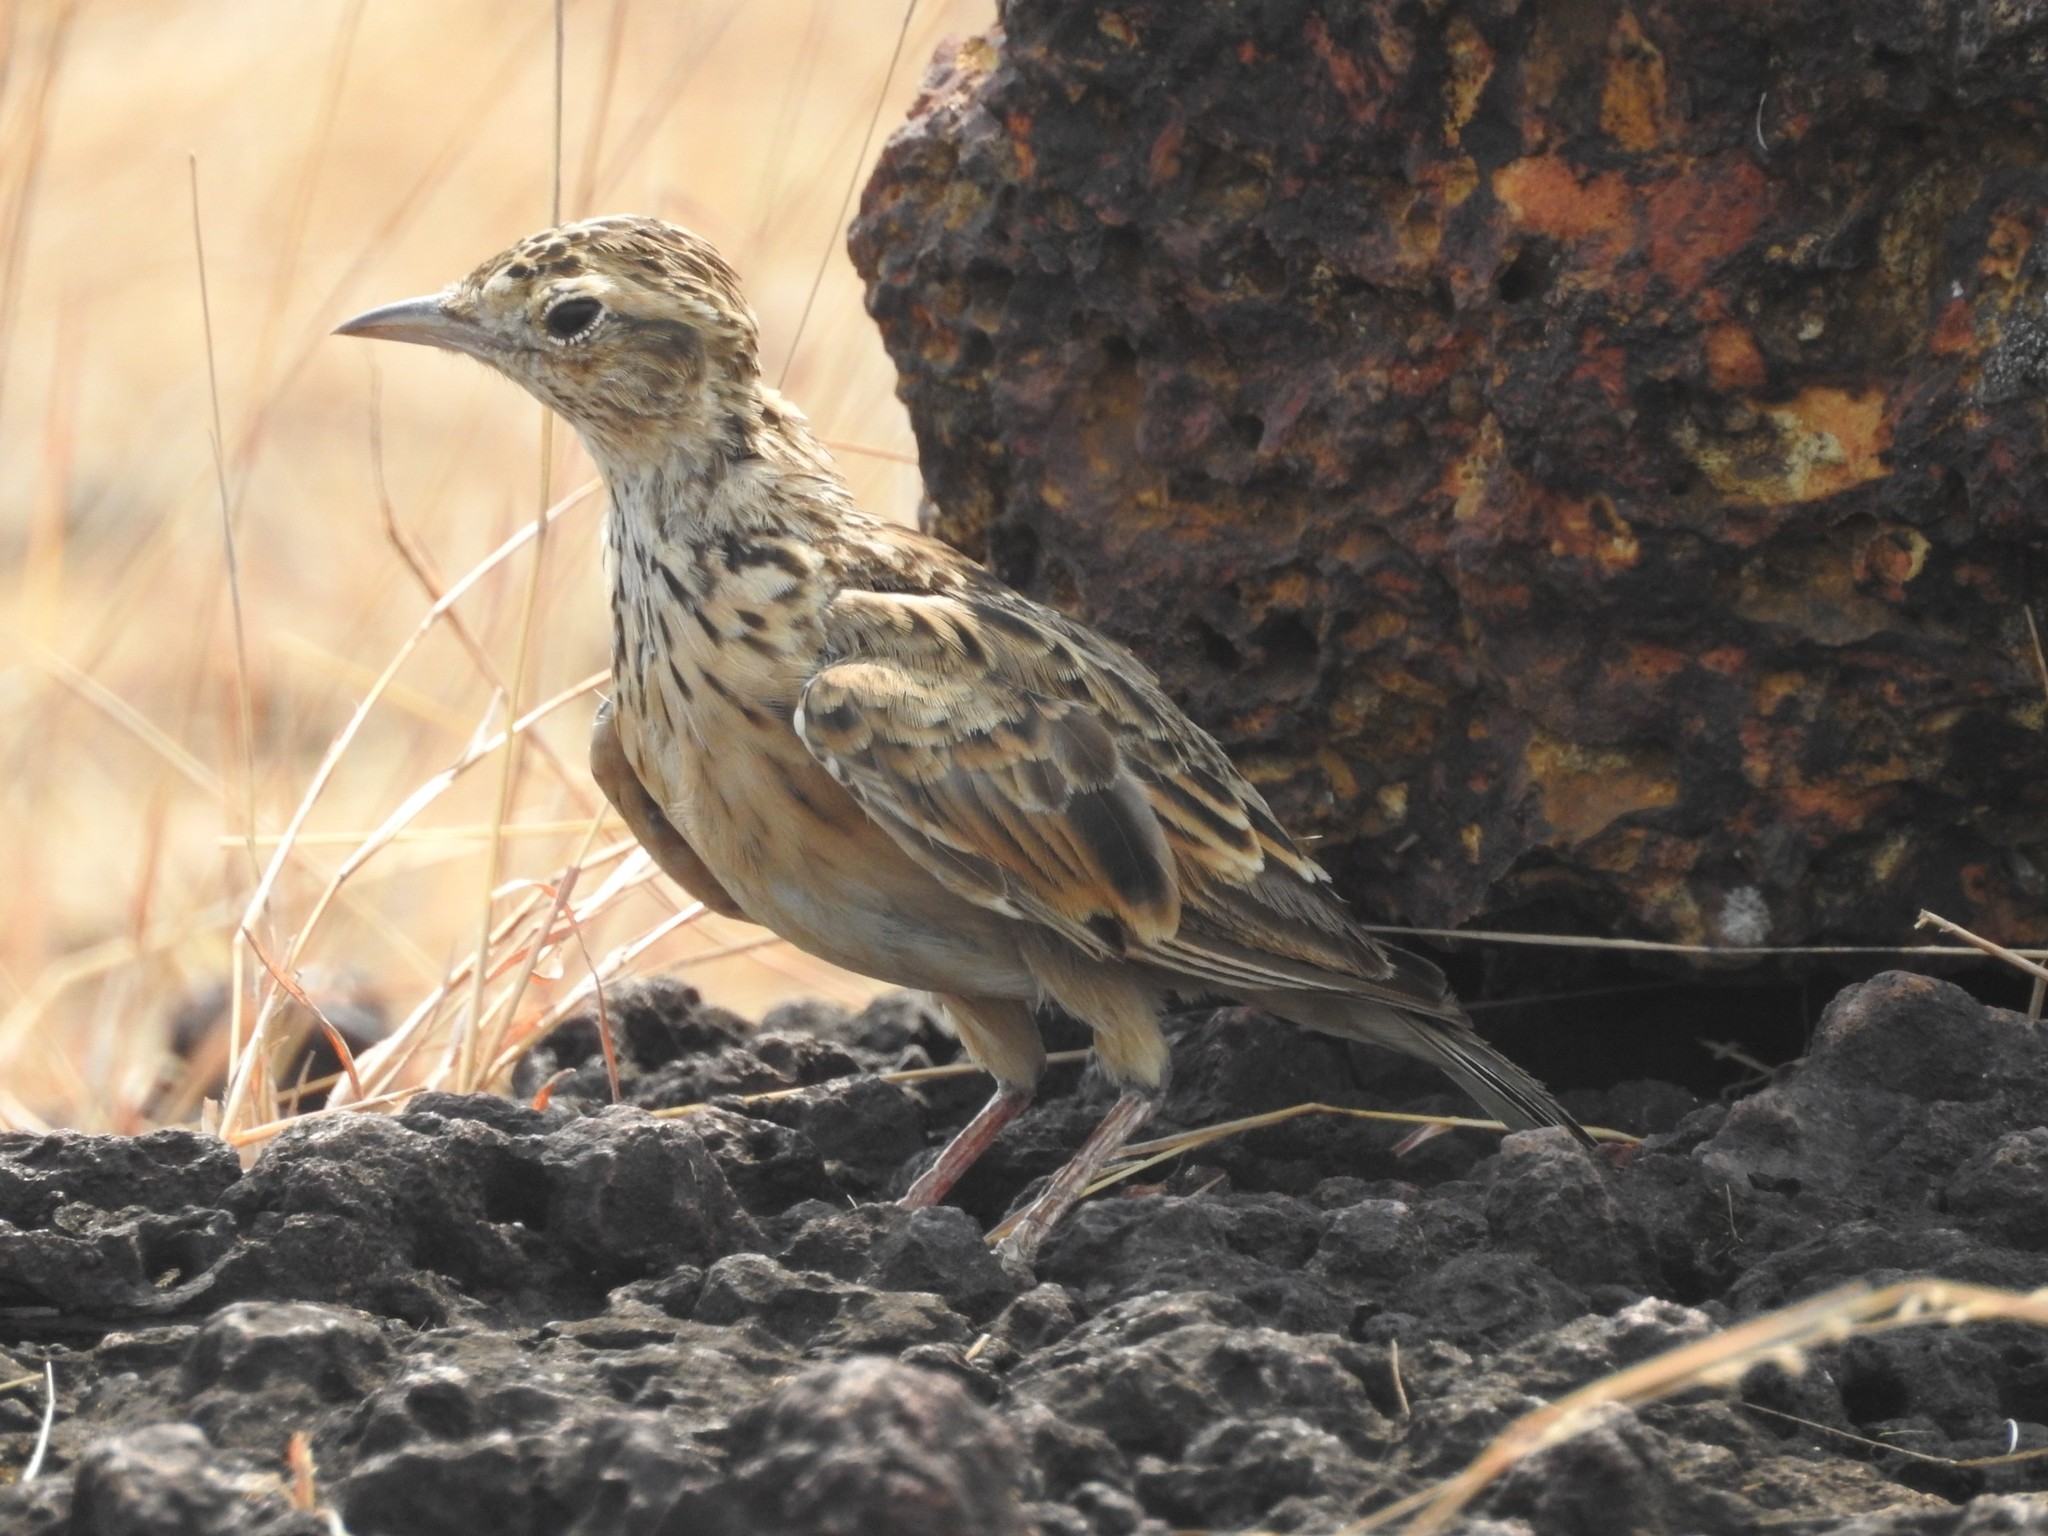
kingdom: Animalia
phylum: Chordata
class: Aves
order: Passeriformes
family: Alaudidae
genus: Alauda
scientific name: Alauda gulgula
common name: Oriental skylark
